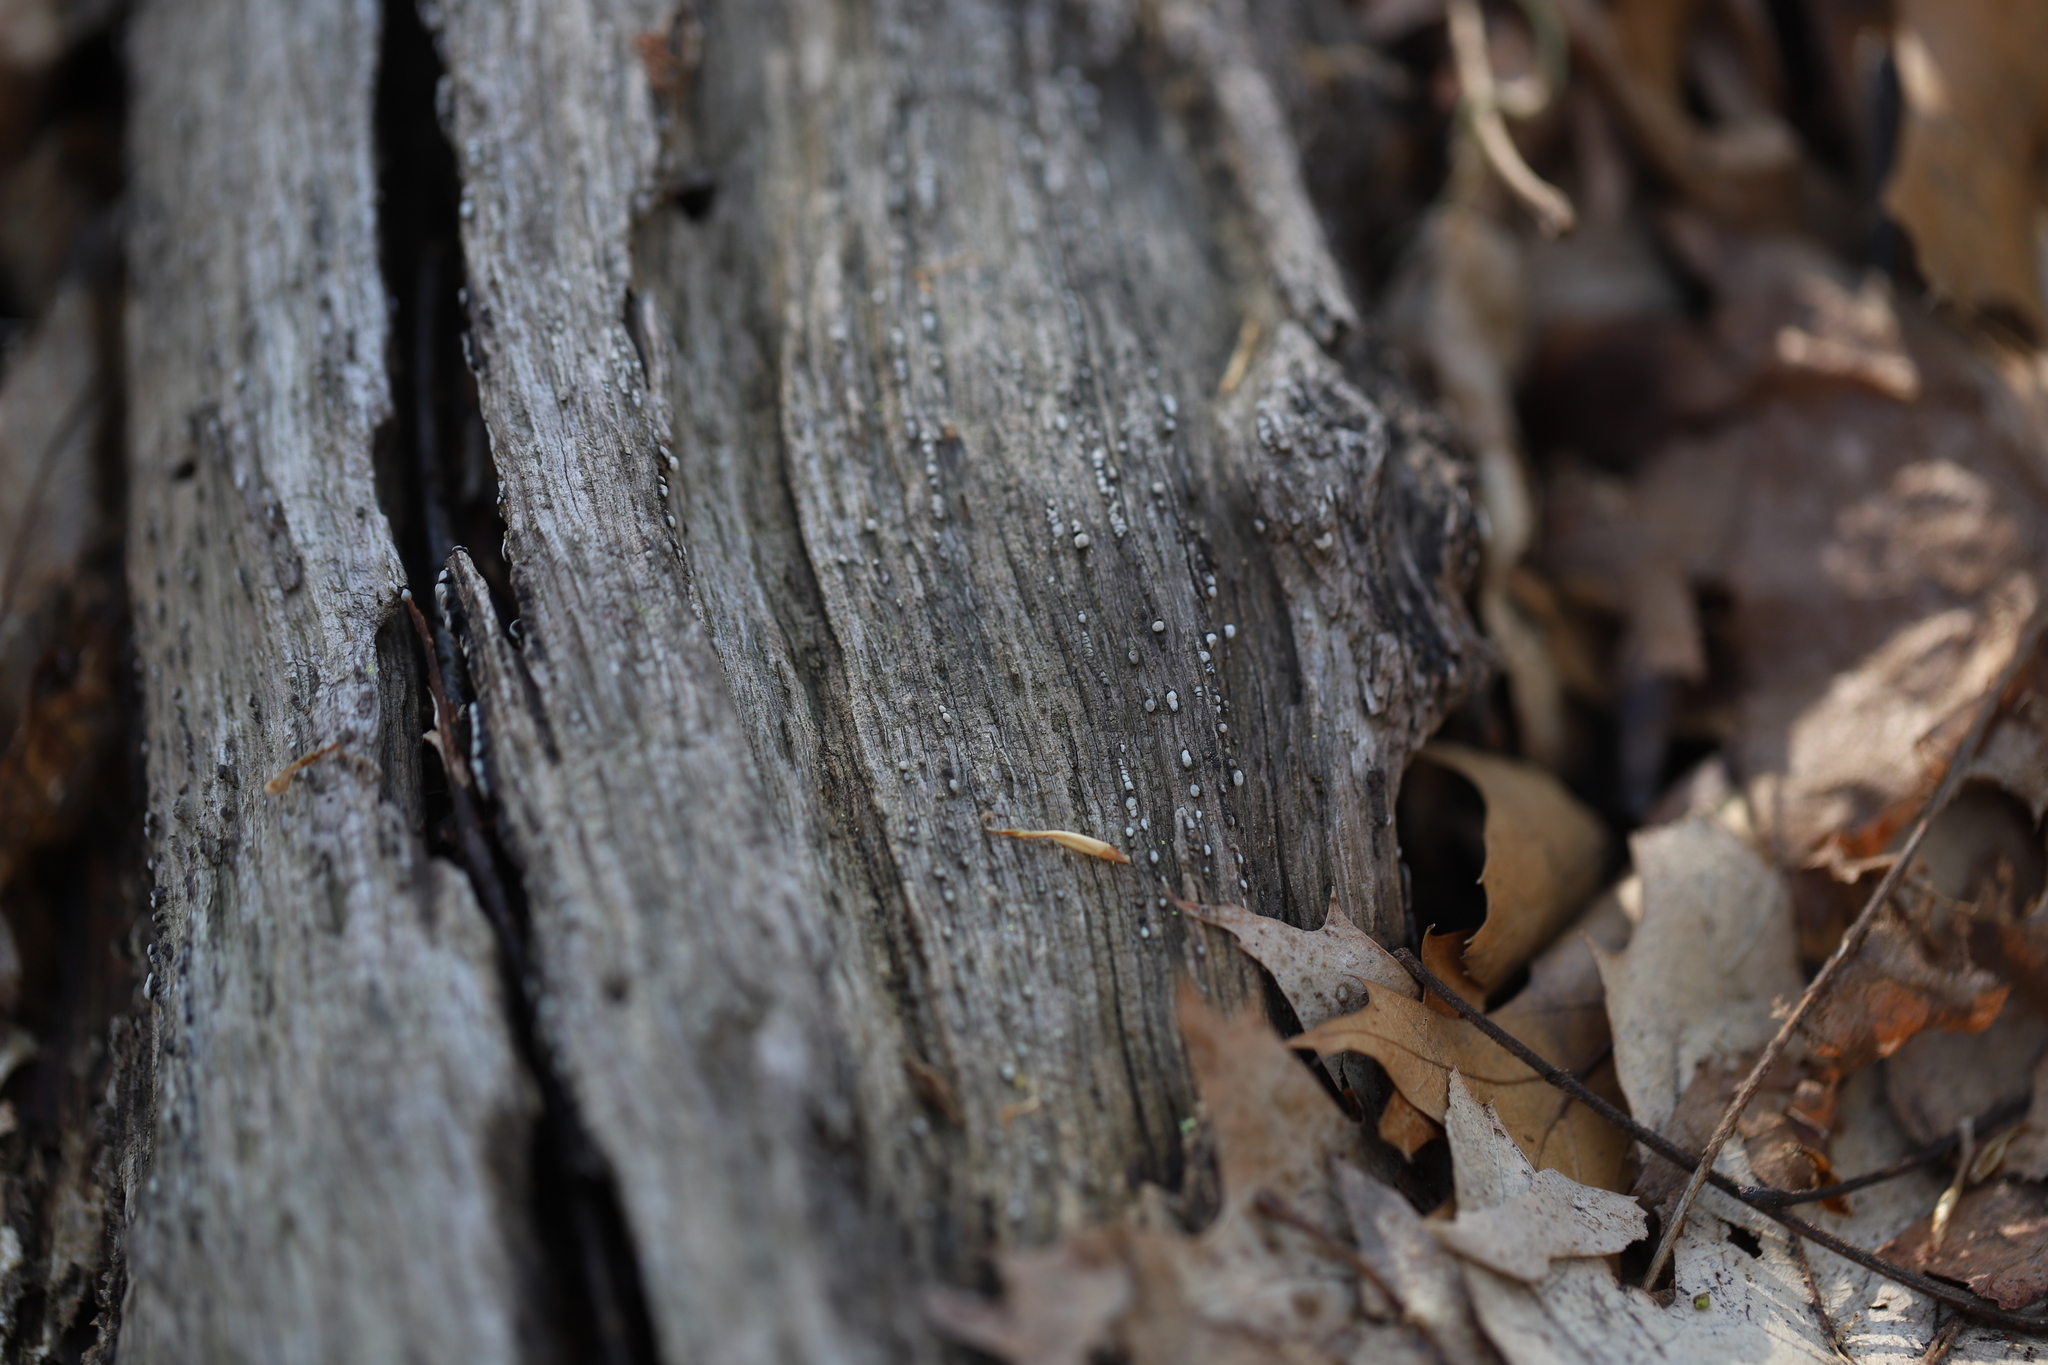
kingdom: Fungi
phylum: Basidiomycota
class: Agaricomycetes
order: Russulales
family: Stereaceae
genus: Xylobolus
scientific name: Xylobolus frustulatus
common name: Ceramic parchment
